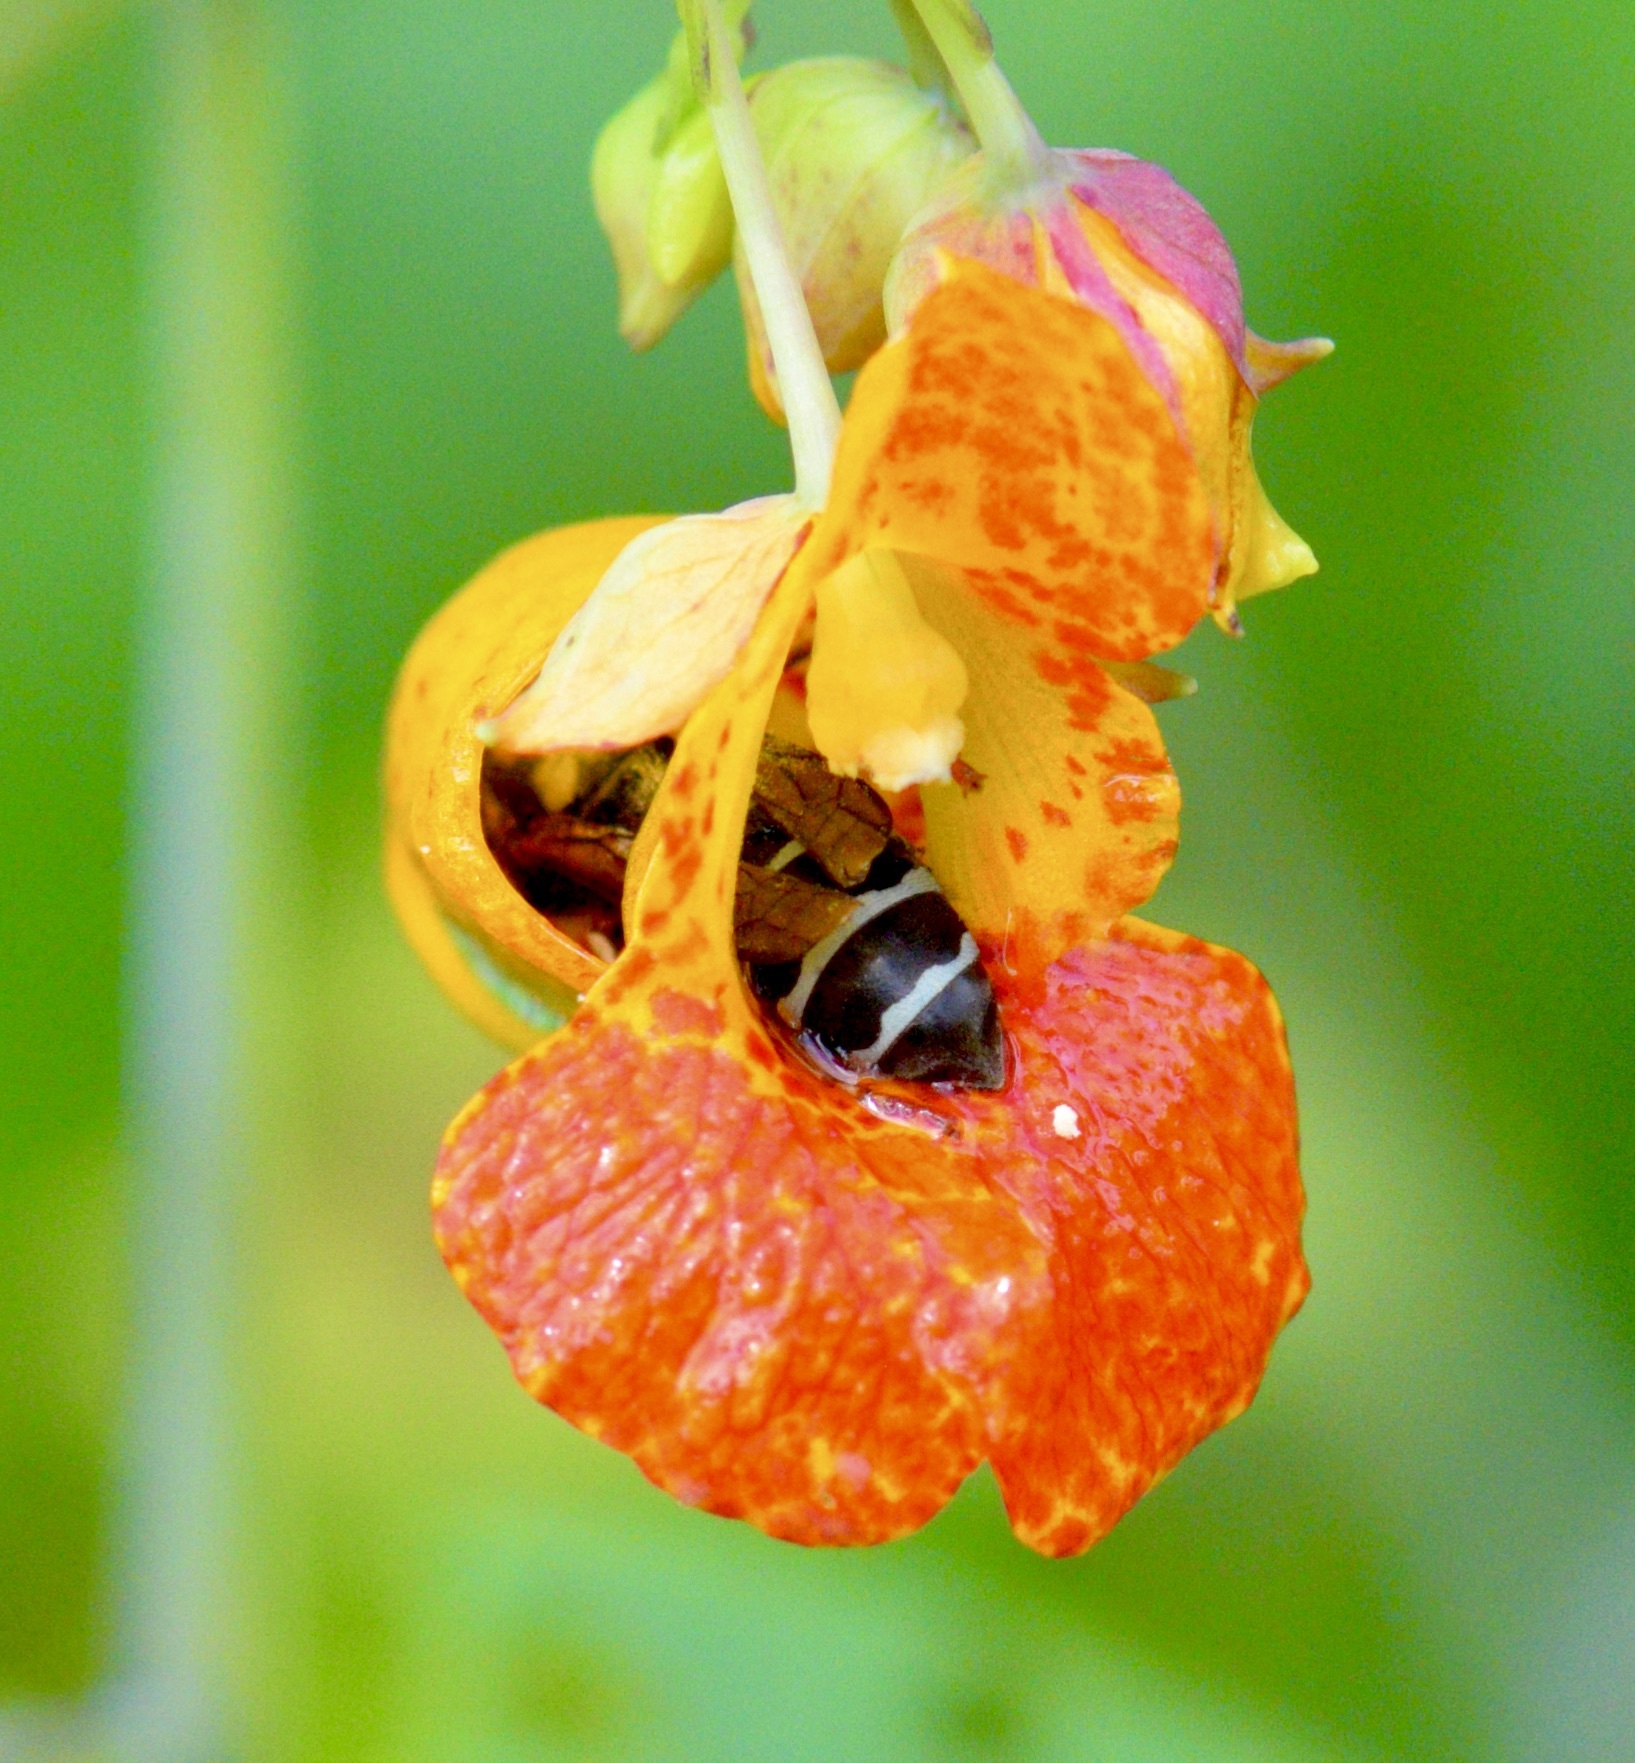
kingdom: Animalia
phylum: Arthropoda
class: Insecta
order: Hymenoptera
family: Vespidae
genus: Vespula
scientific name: Vespula consobrina
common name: Blackjacket
